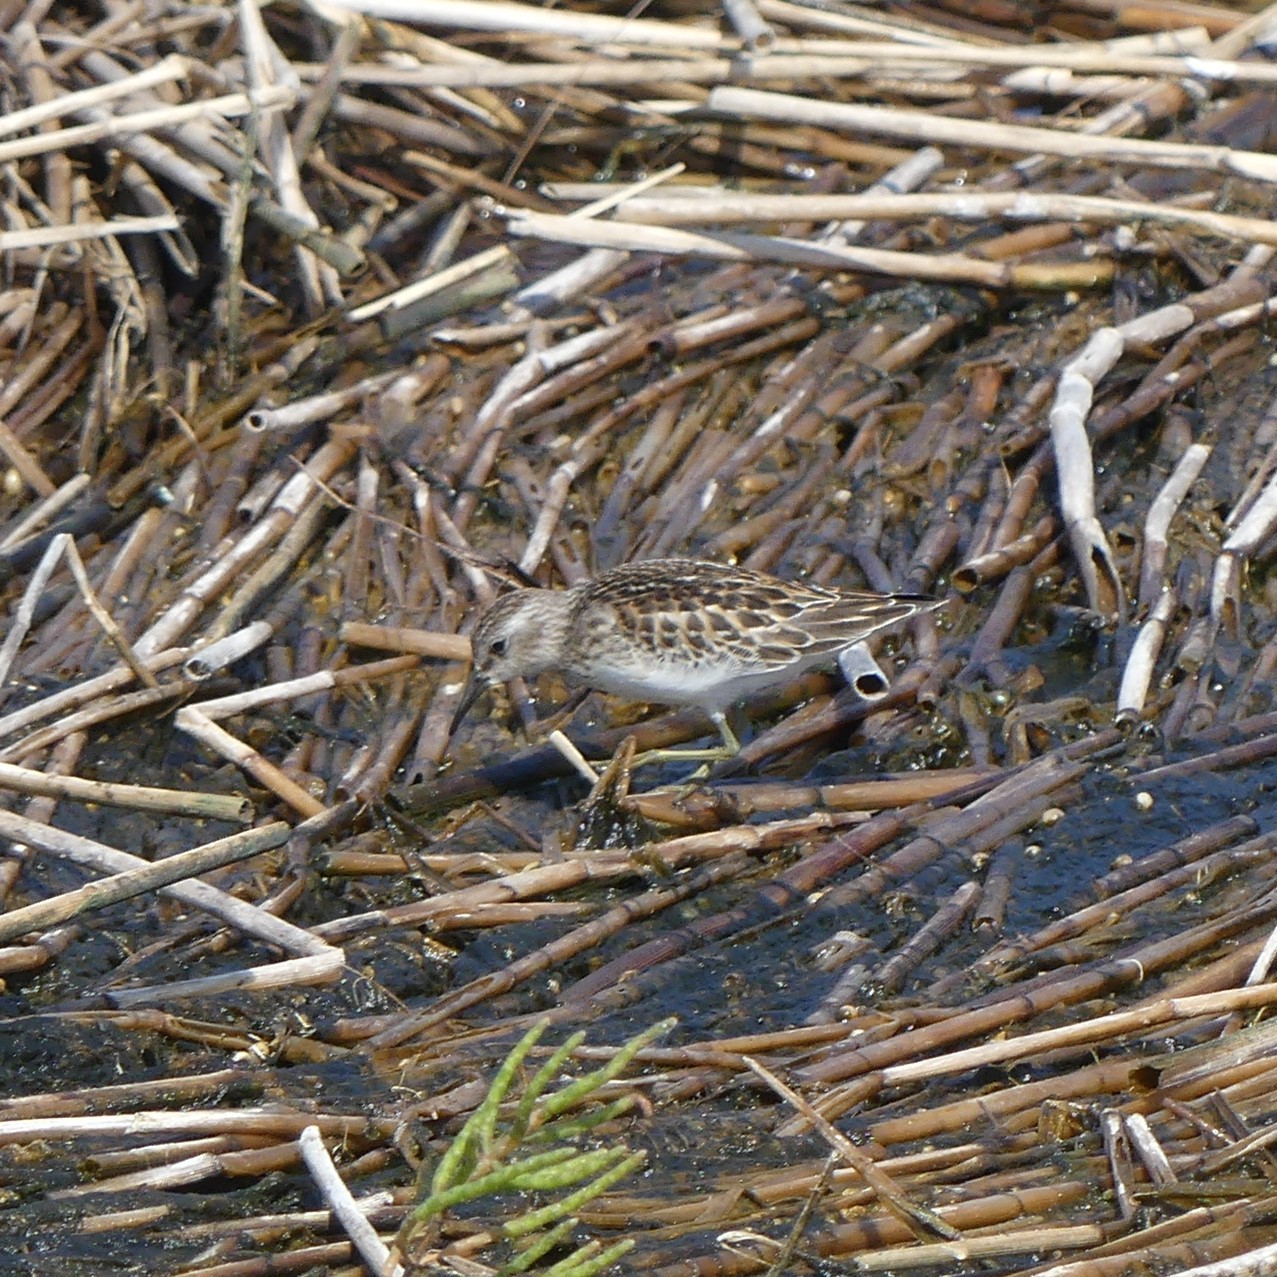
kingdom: Animalia
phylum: Chordata
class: Aves
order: Charadriiformes
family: Scolopacidae
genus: Calidris
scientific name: Calidris minutilla
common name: Least sandpiper
